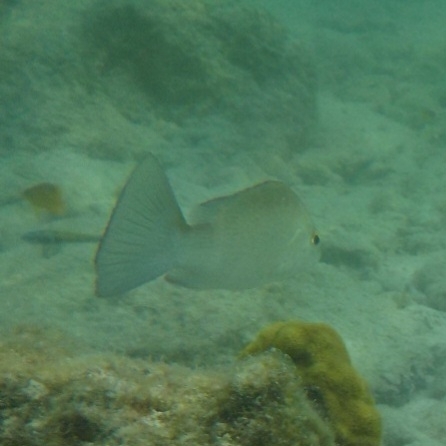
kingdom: Animalia
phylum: Chordata
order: Perciformes
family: Lutjanidae
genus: Lutjanus
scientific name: Lutjanus griseus
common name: Gray snapper
